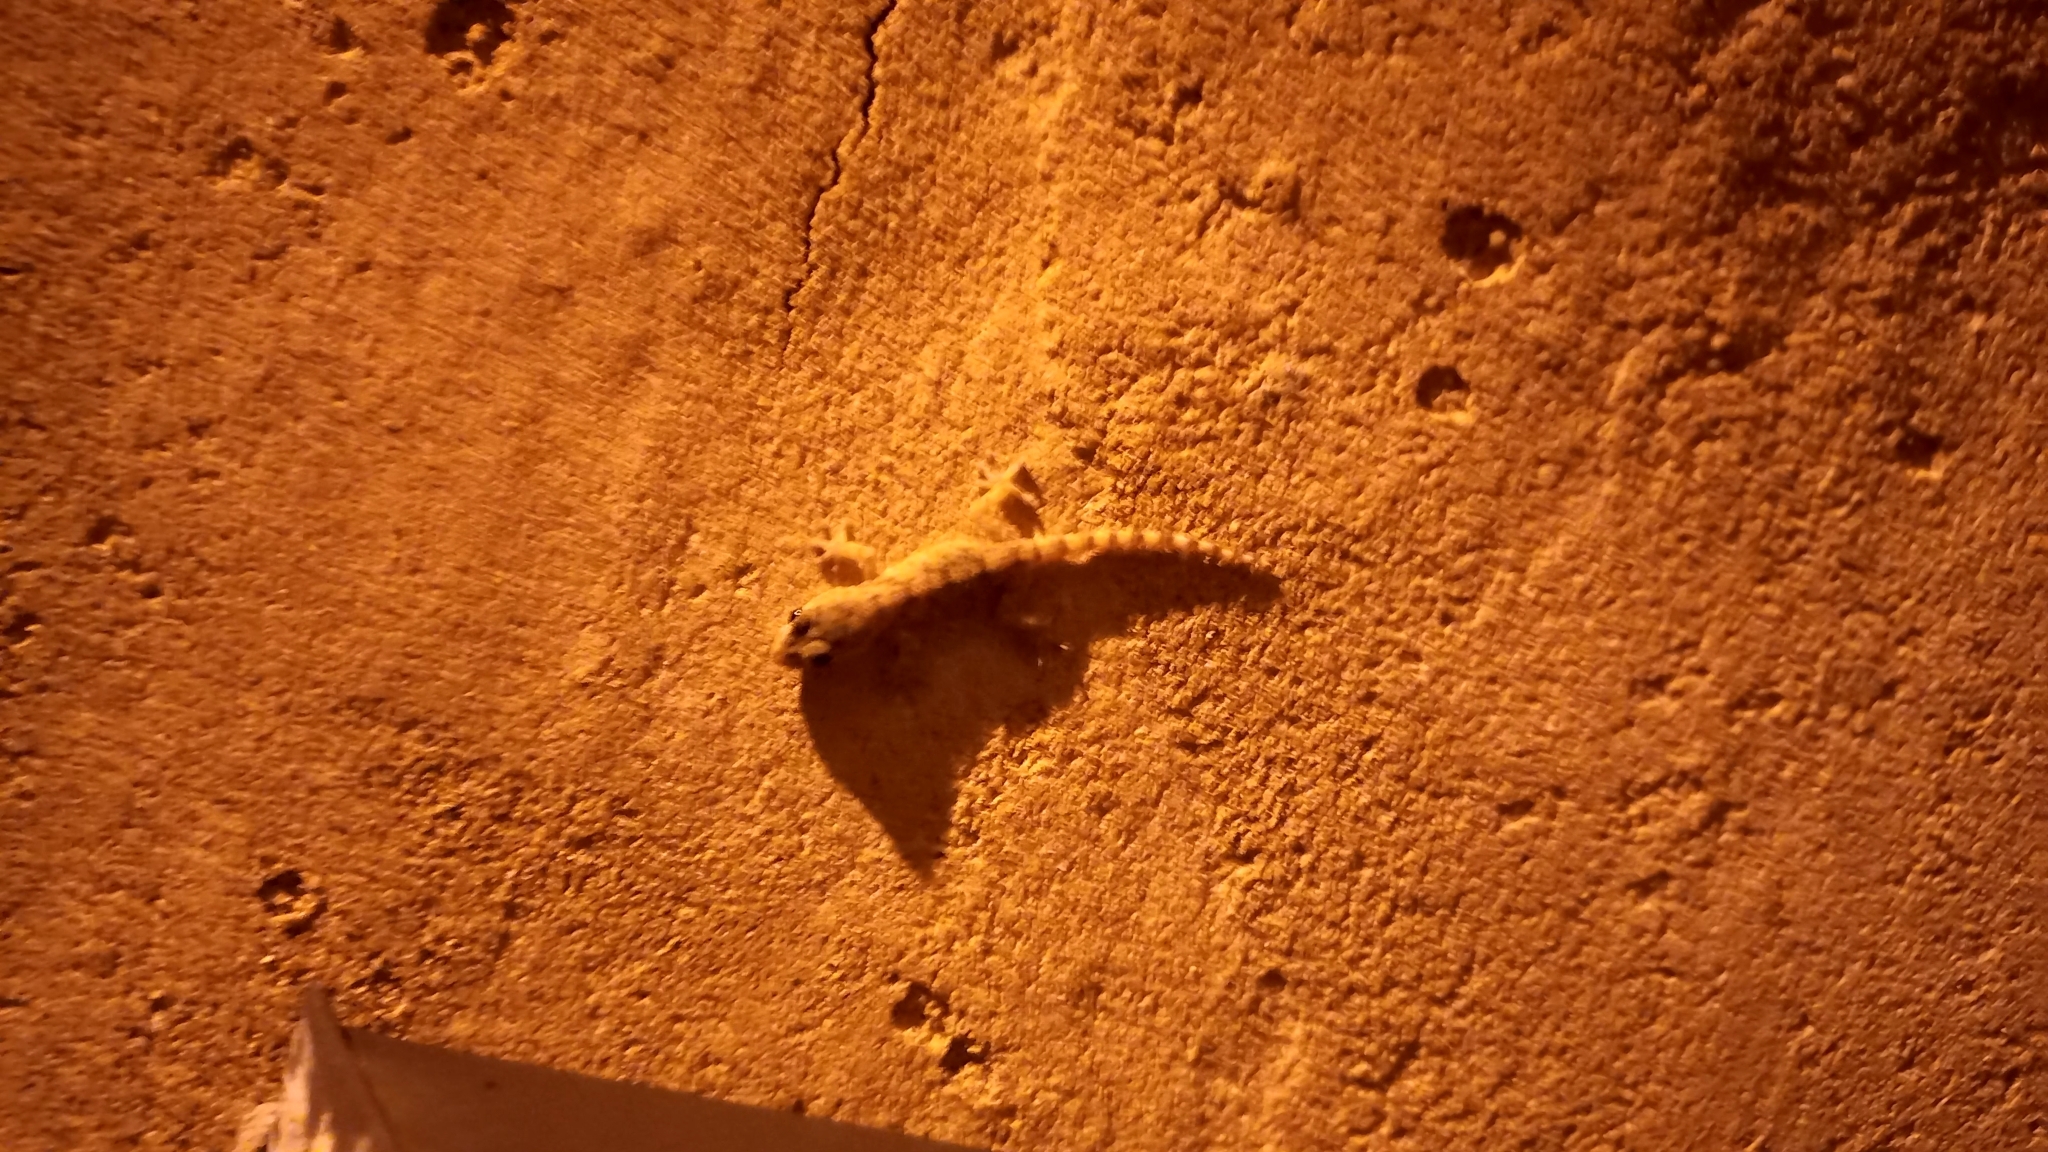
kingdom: Animalia
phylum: Chordata
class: Squamata
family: Phyllodactylidae
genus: Tarentola
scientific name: Tarentola mauritanica
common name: Moorish gecko
